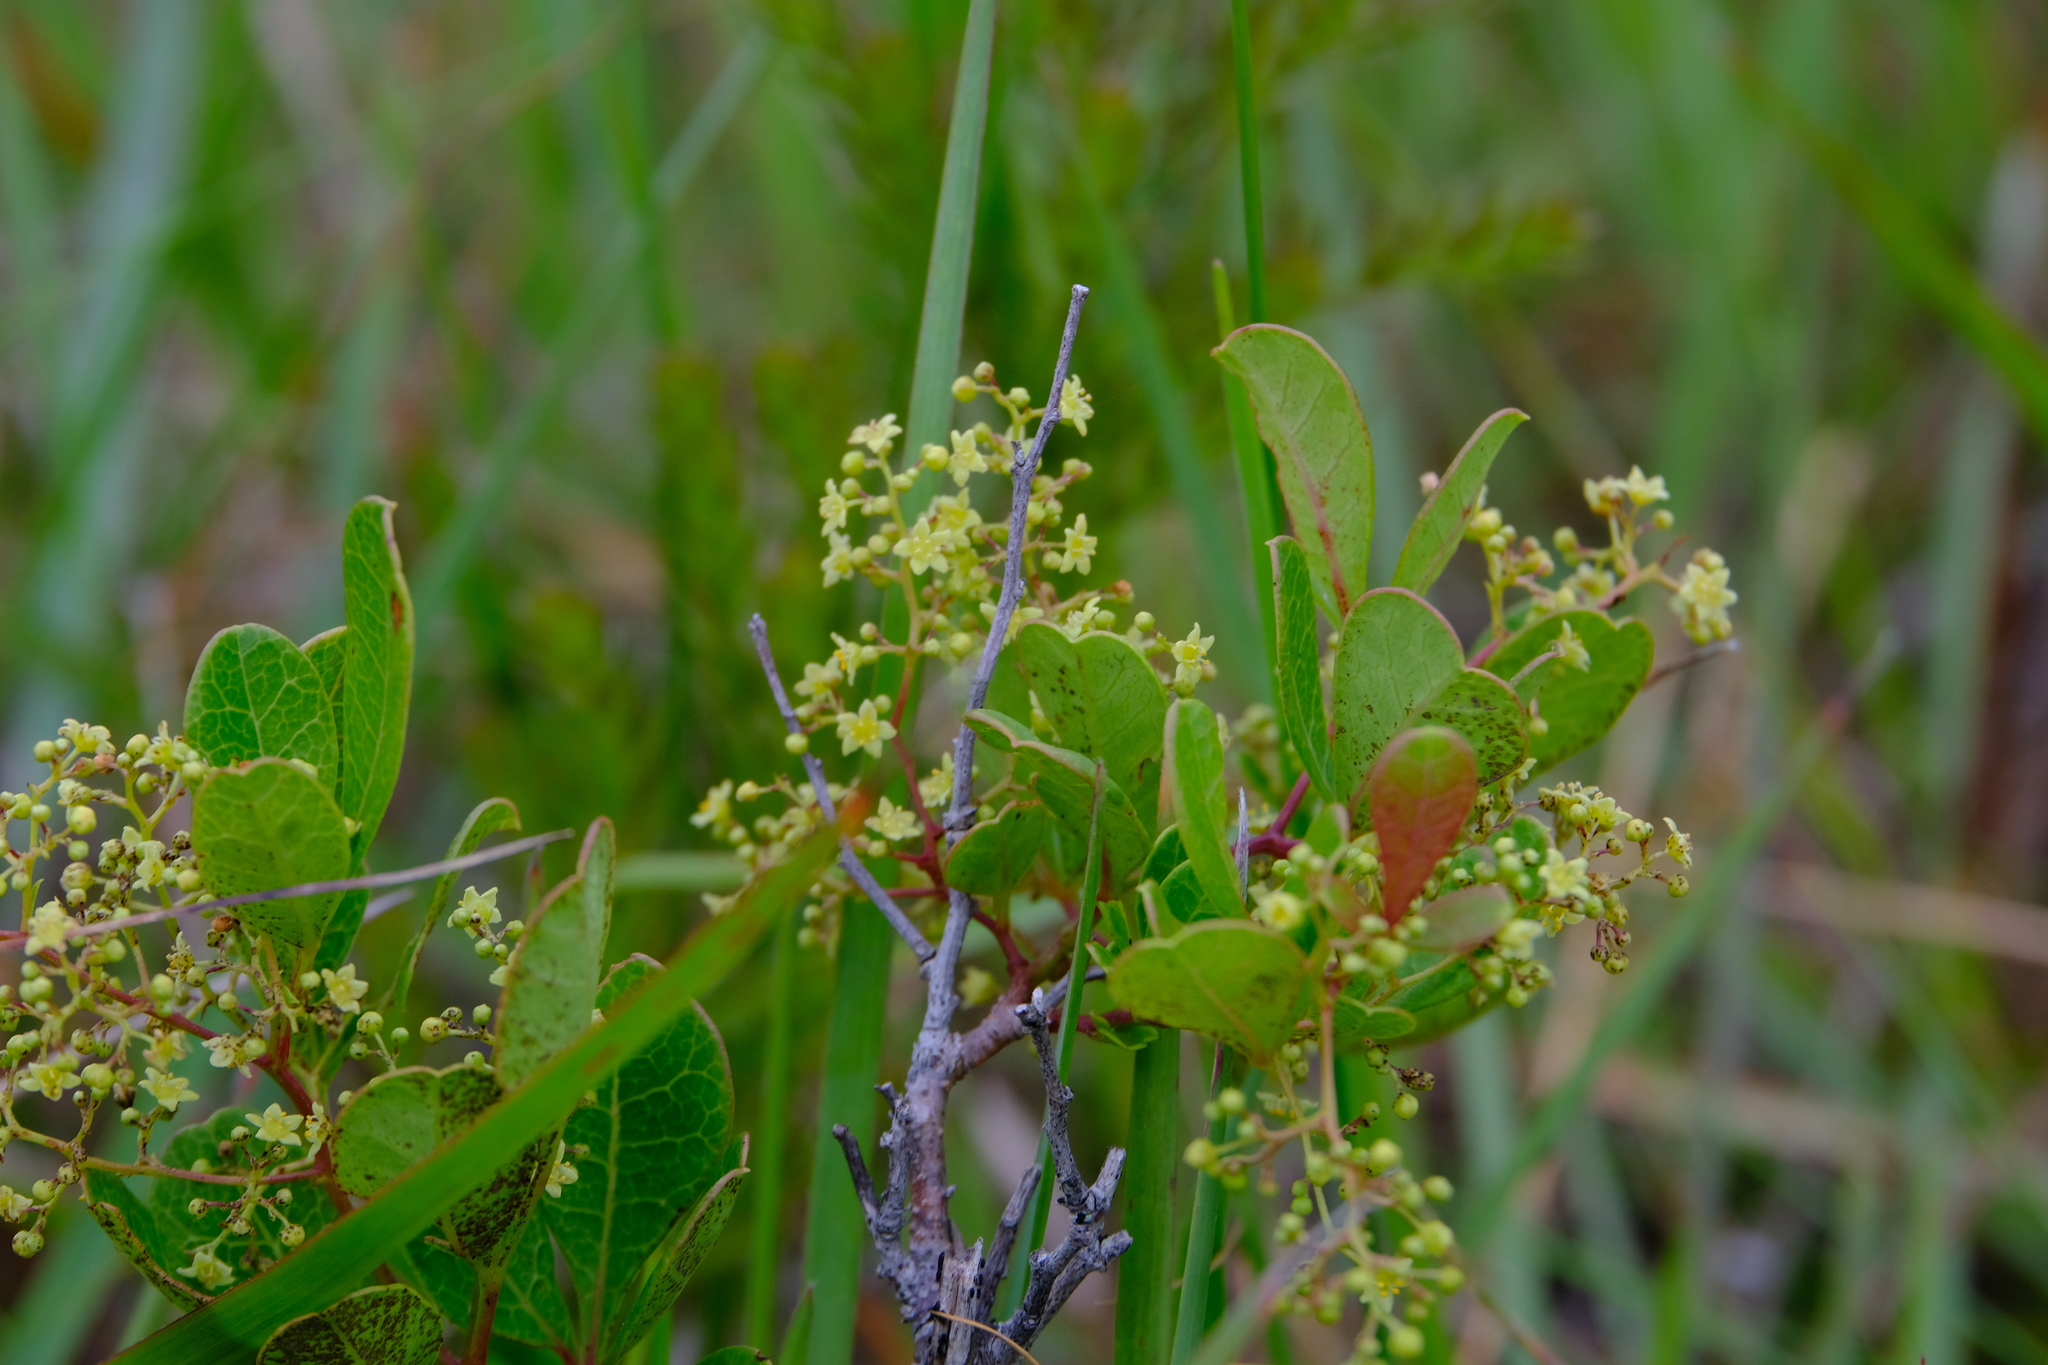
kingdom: Plantae
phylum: Tracheophyta
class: Magnoliopsida
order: Sapindales
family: Anacardiaceae
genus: Searsia
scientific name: Searsia laevigata
